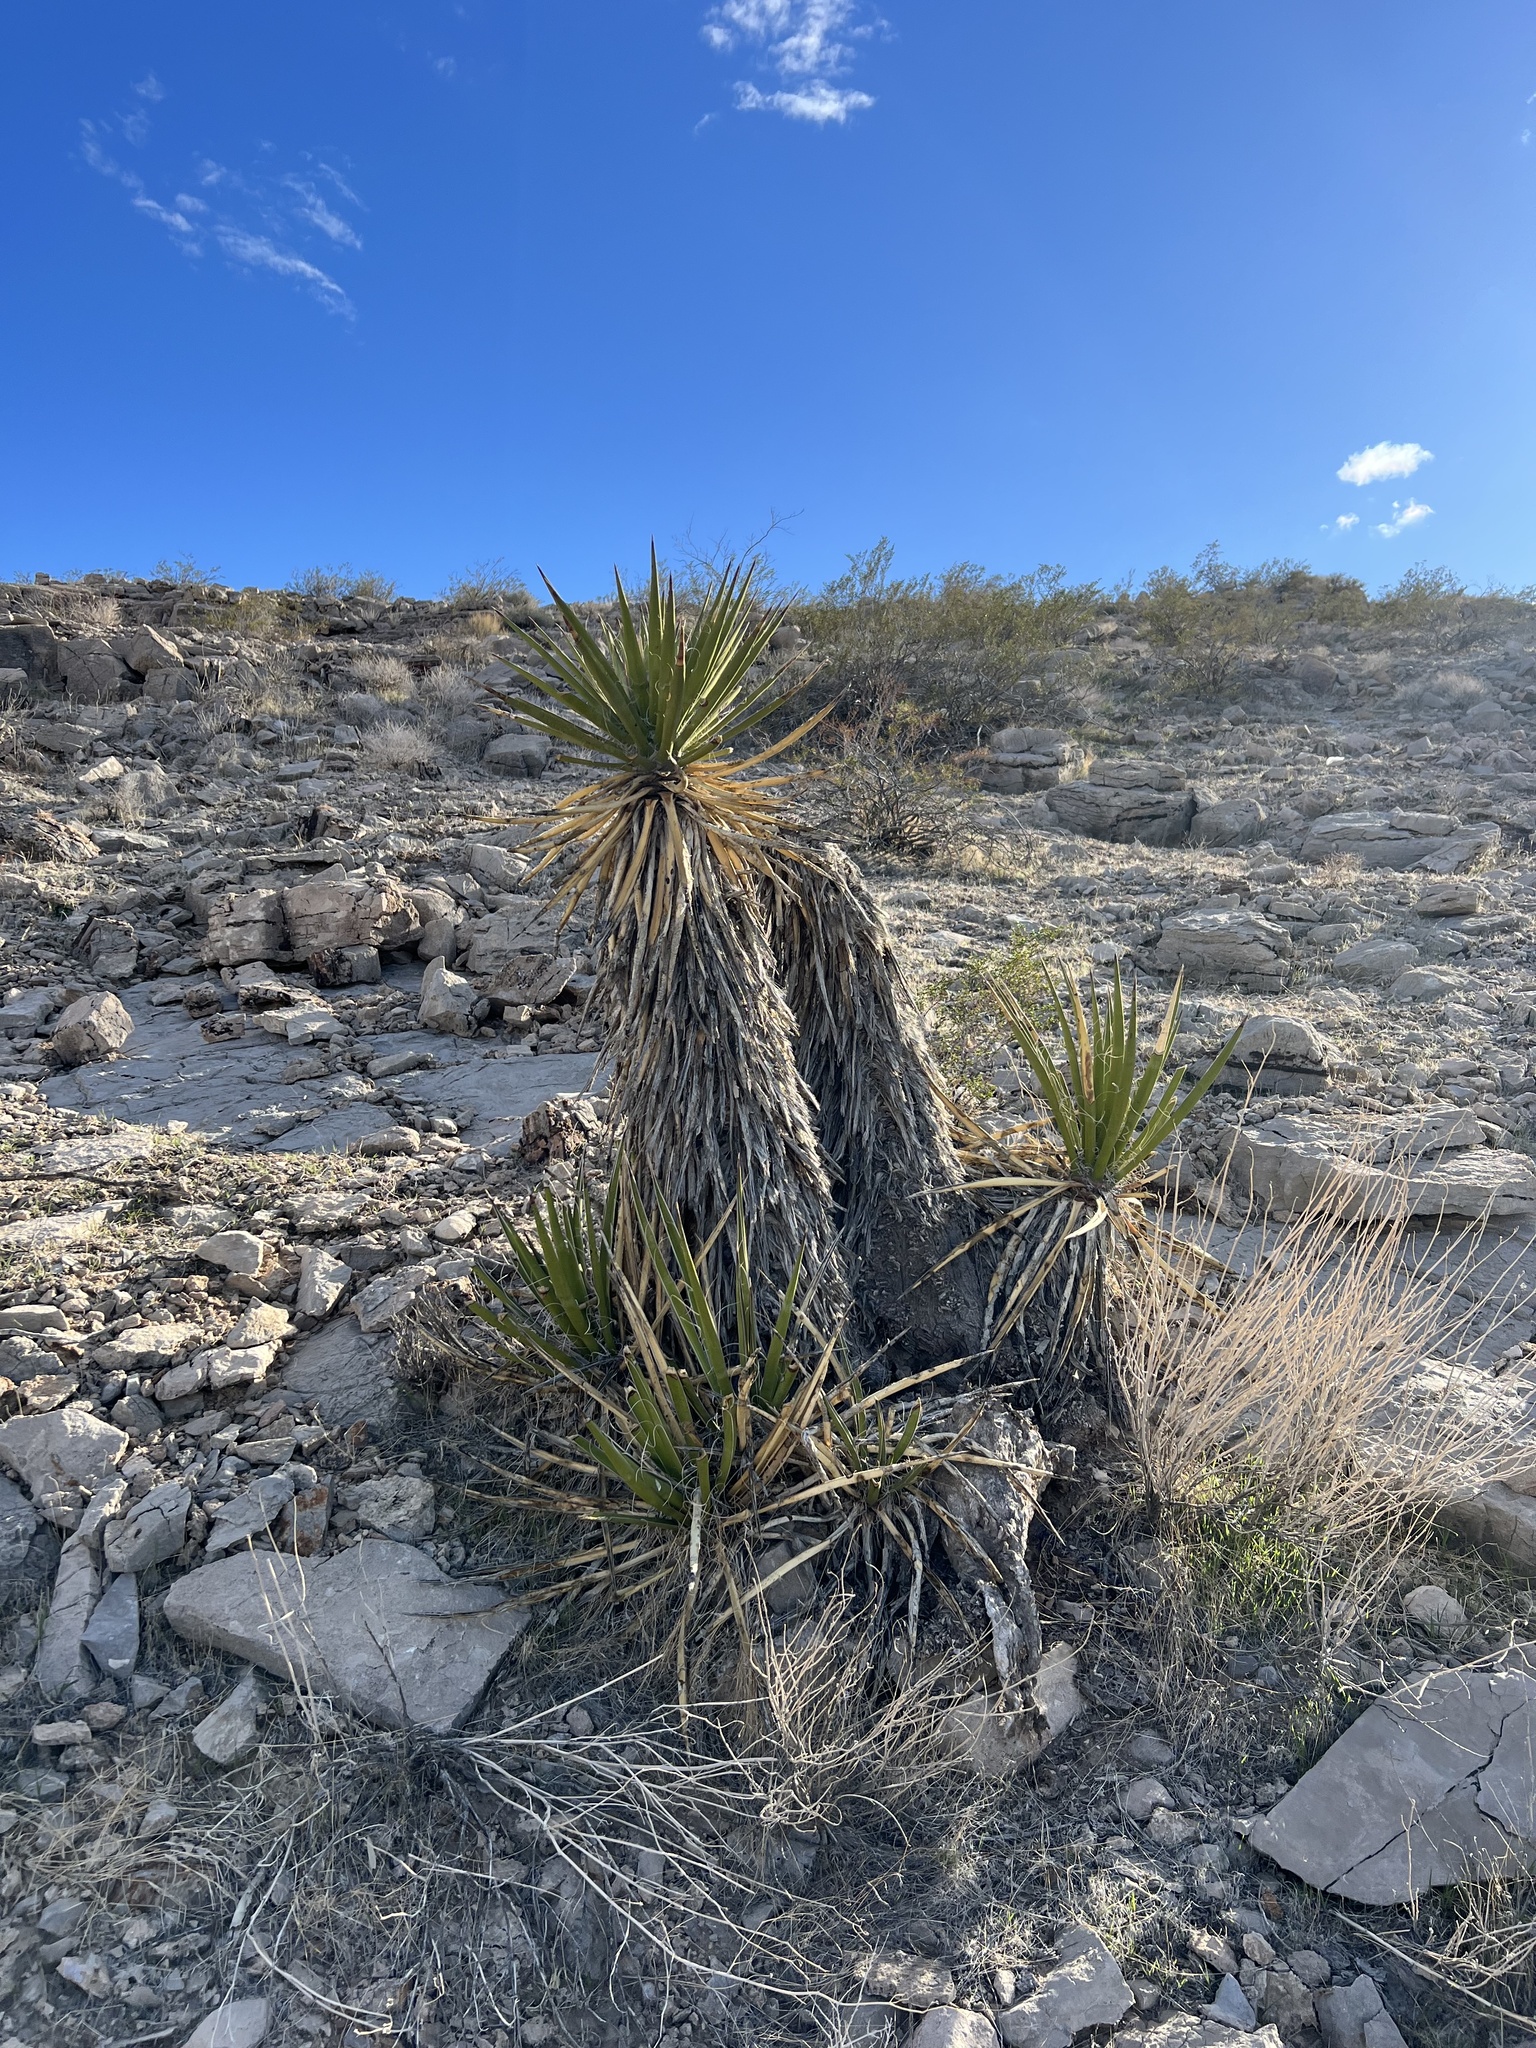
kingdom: Plantae
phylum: Tracheophyta
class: Liliopsida
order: Asparagales
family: Asparagaceae
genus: Yucca
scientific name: Yucca schidigera
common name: Mojave yucca
